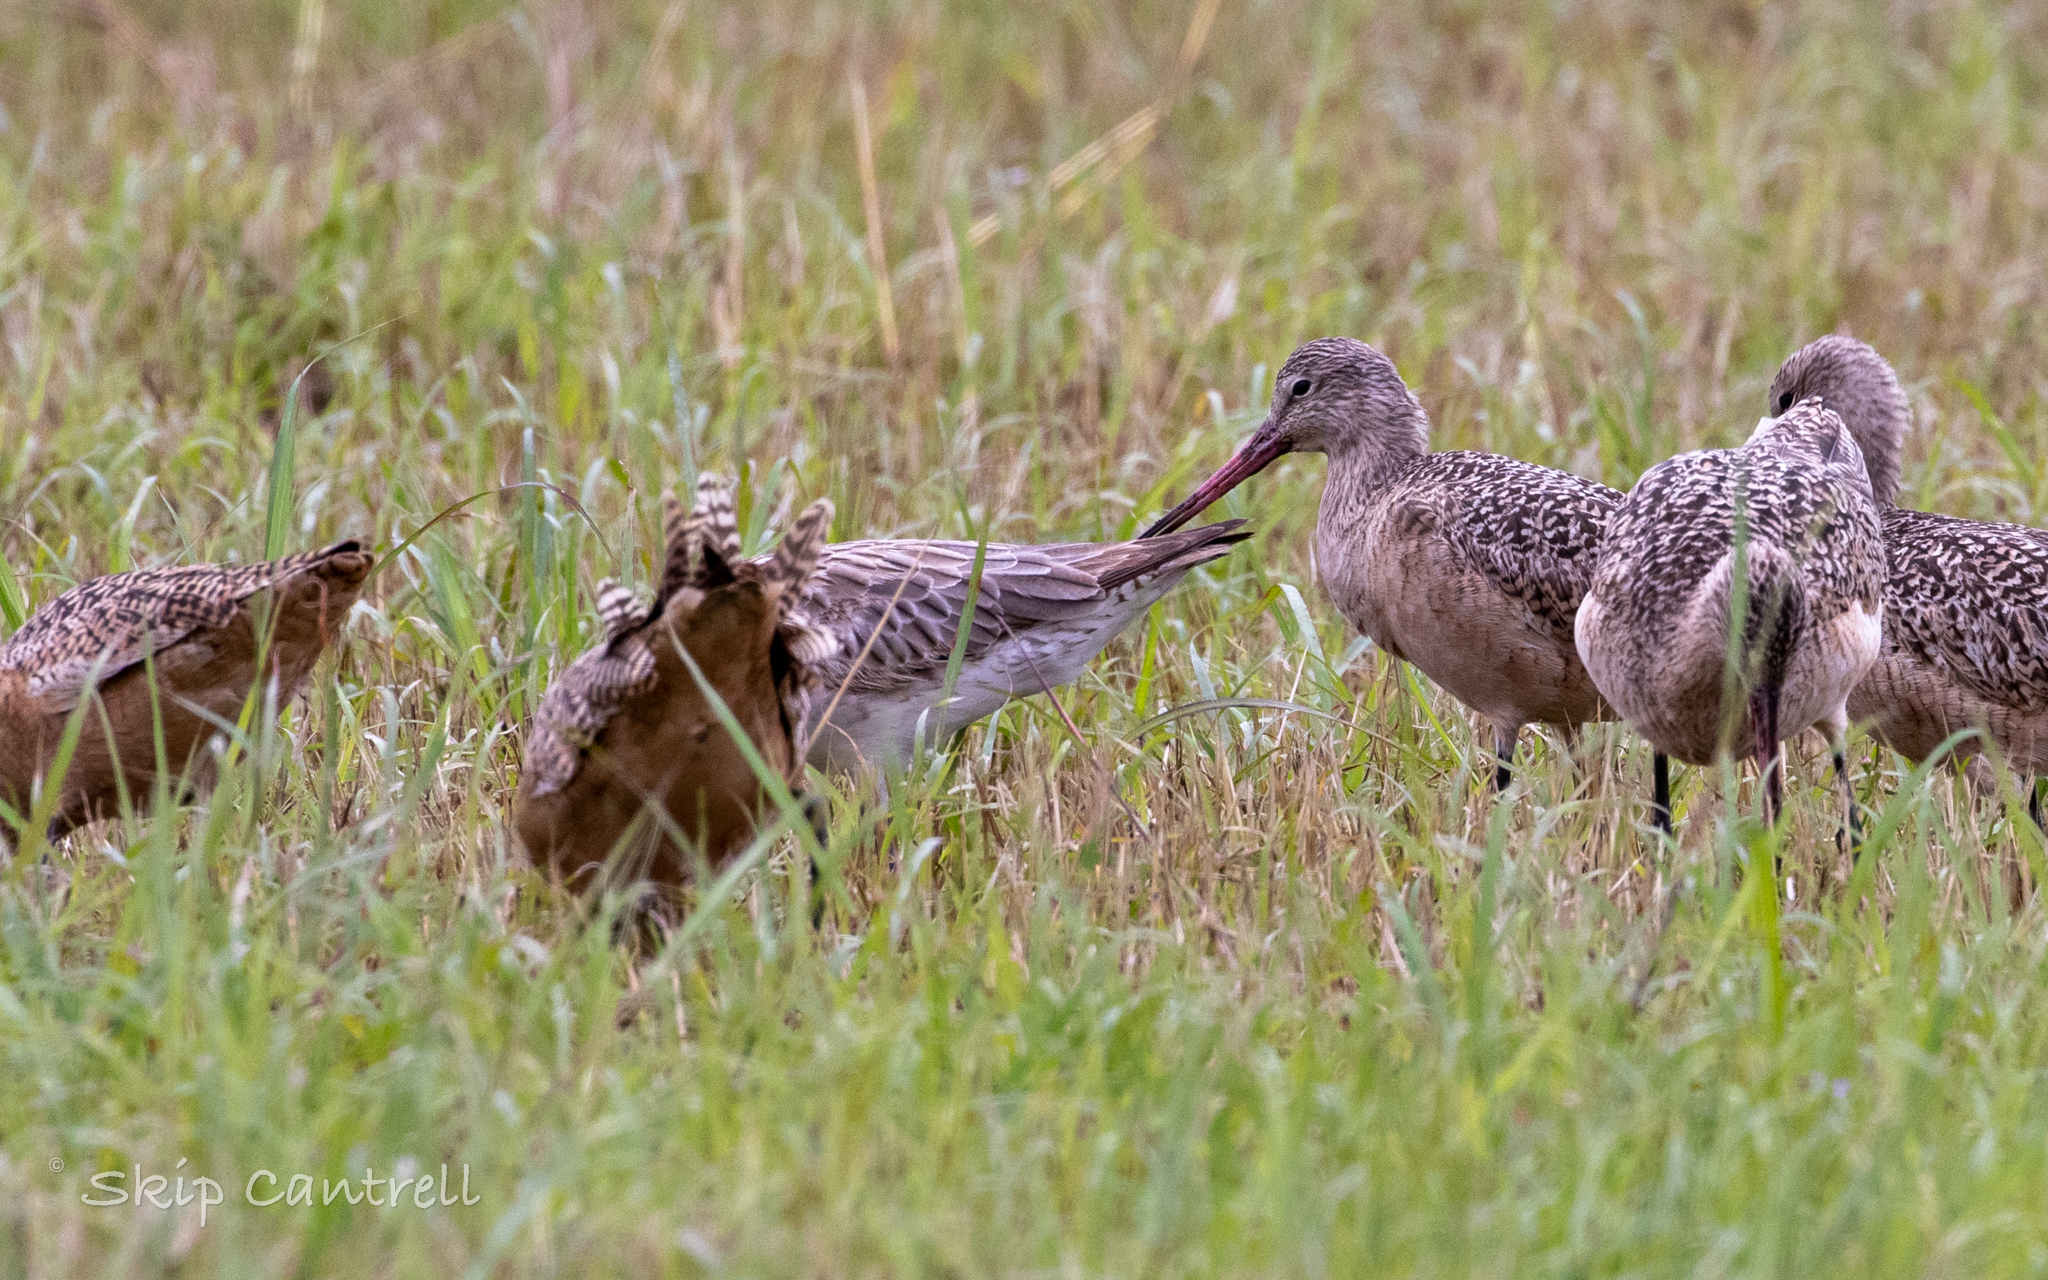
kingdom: Animalia
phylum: Chordata
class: Aves
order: Charadriiformes
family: Scolopacidae
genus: Limosa
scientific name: Limosa lapponica
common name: Bar-tailed godwit
